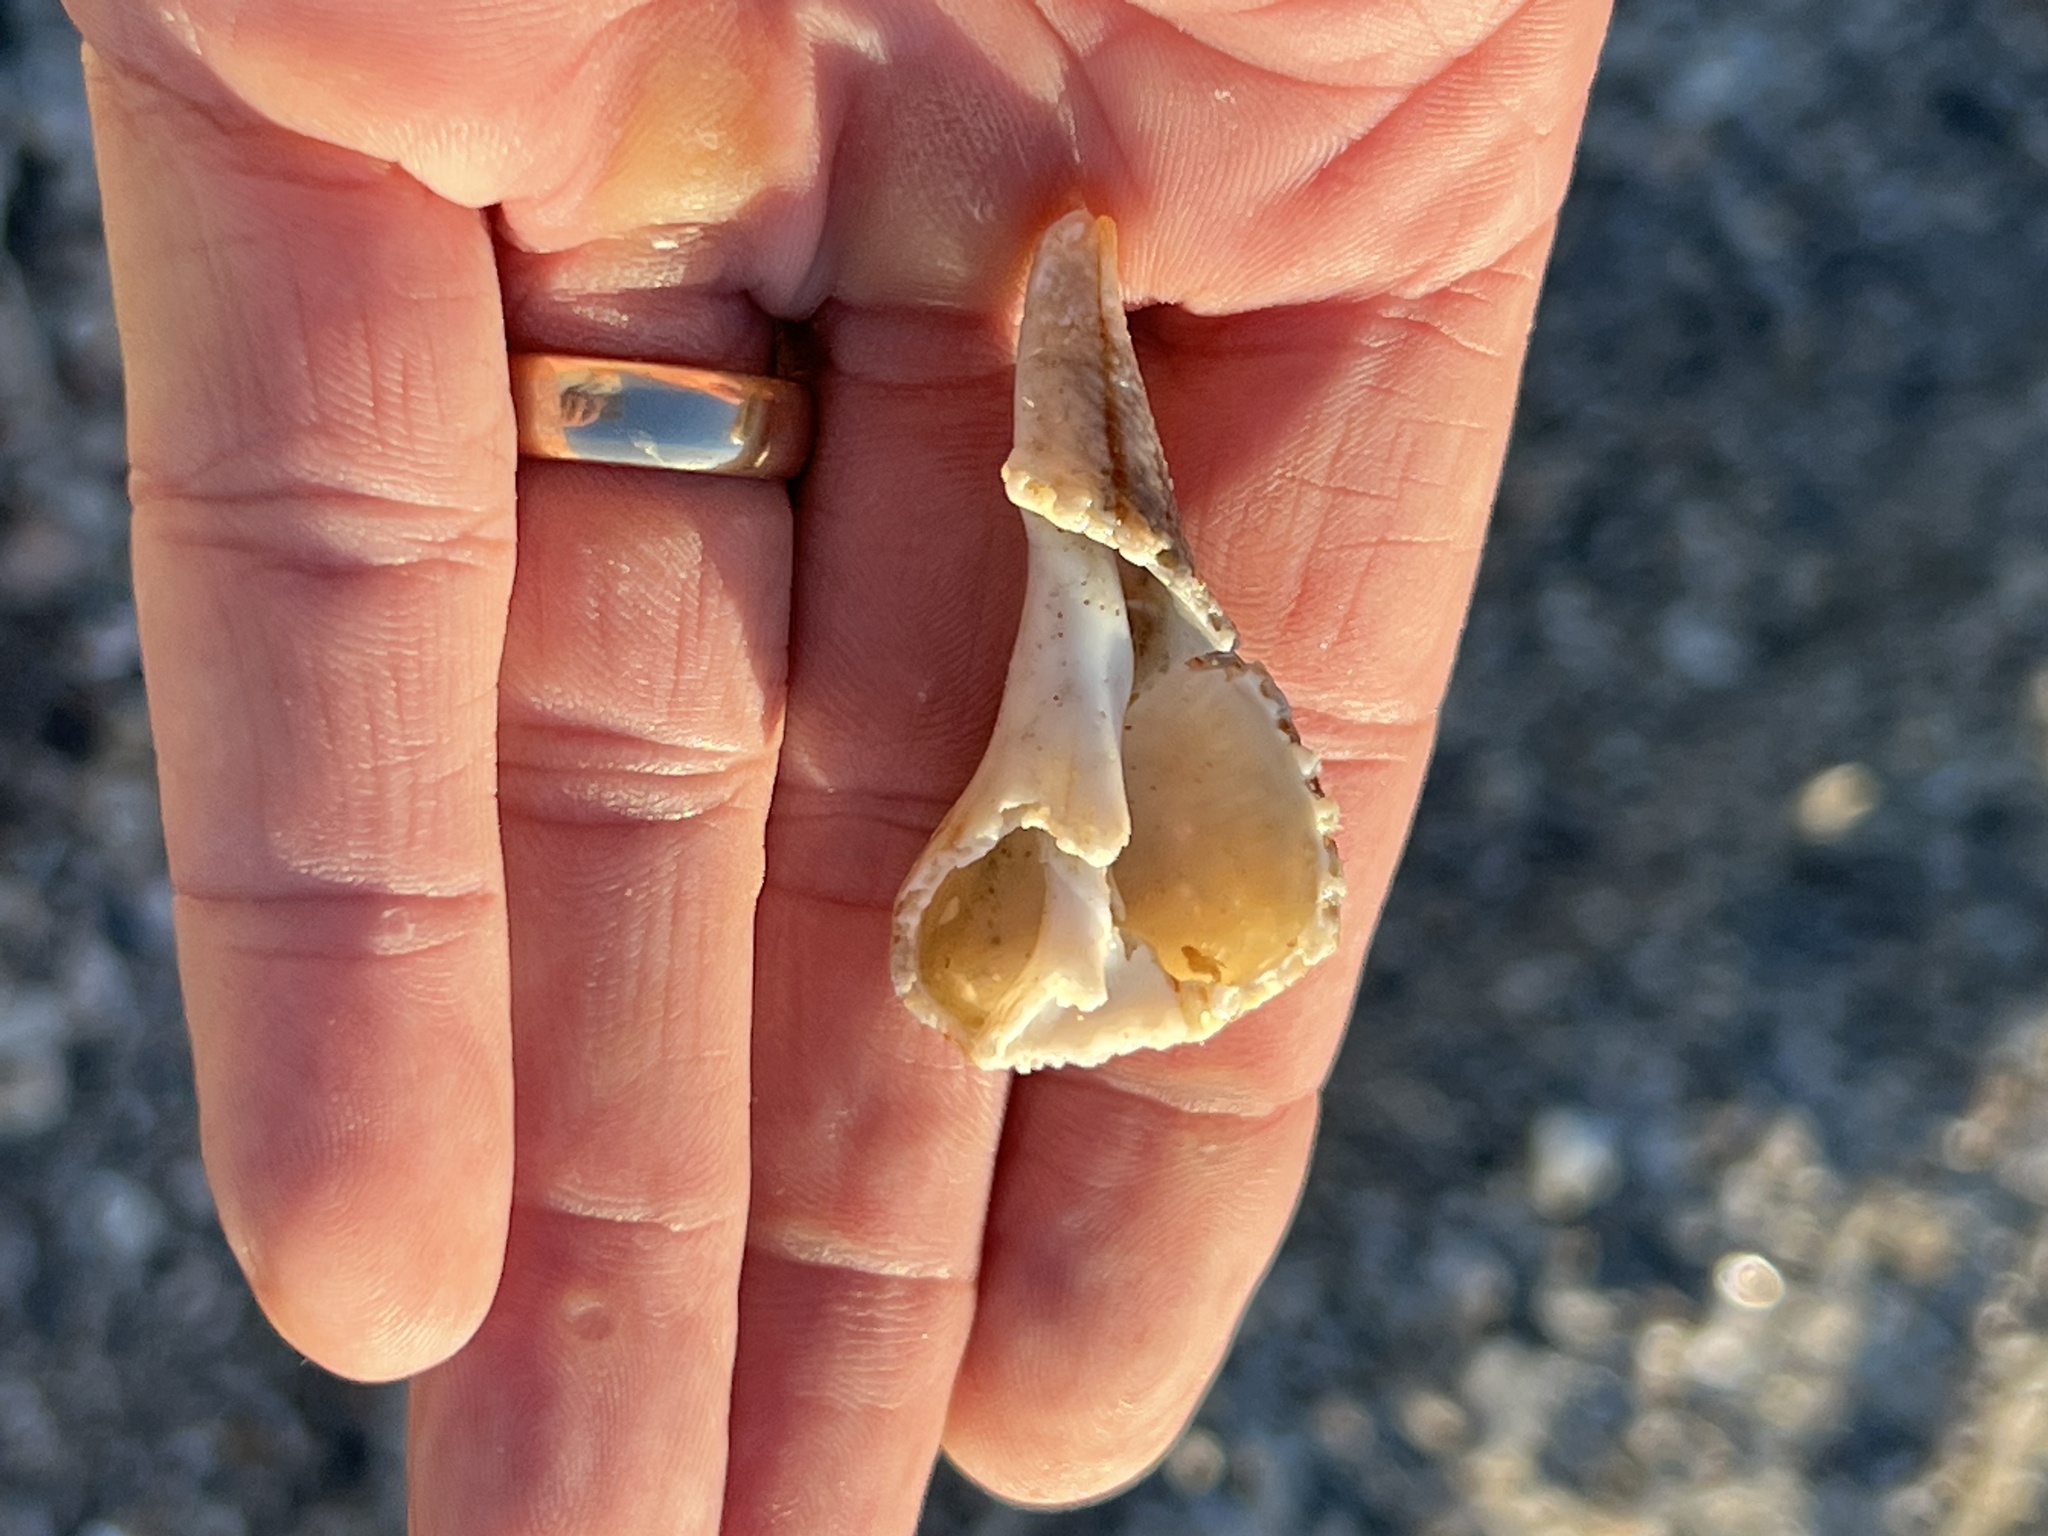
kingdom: Animalia
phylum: Mollusca
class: Gastropoda
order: Neogastropoda
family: Busyconidae
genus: Sinistrofulgur
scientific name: Sinistrofulgur pulleyi
